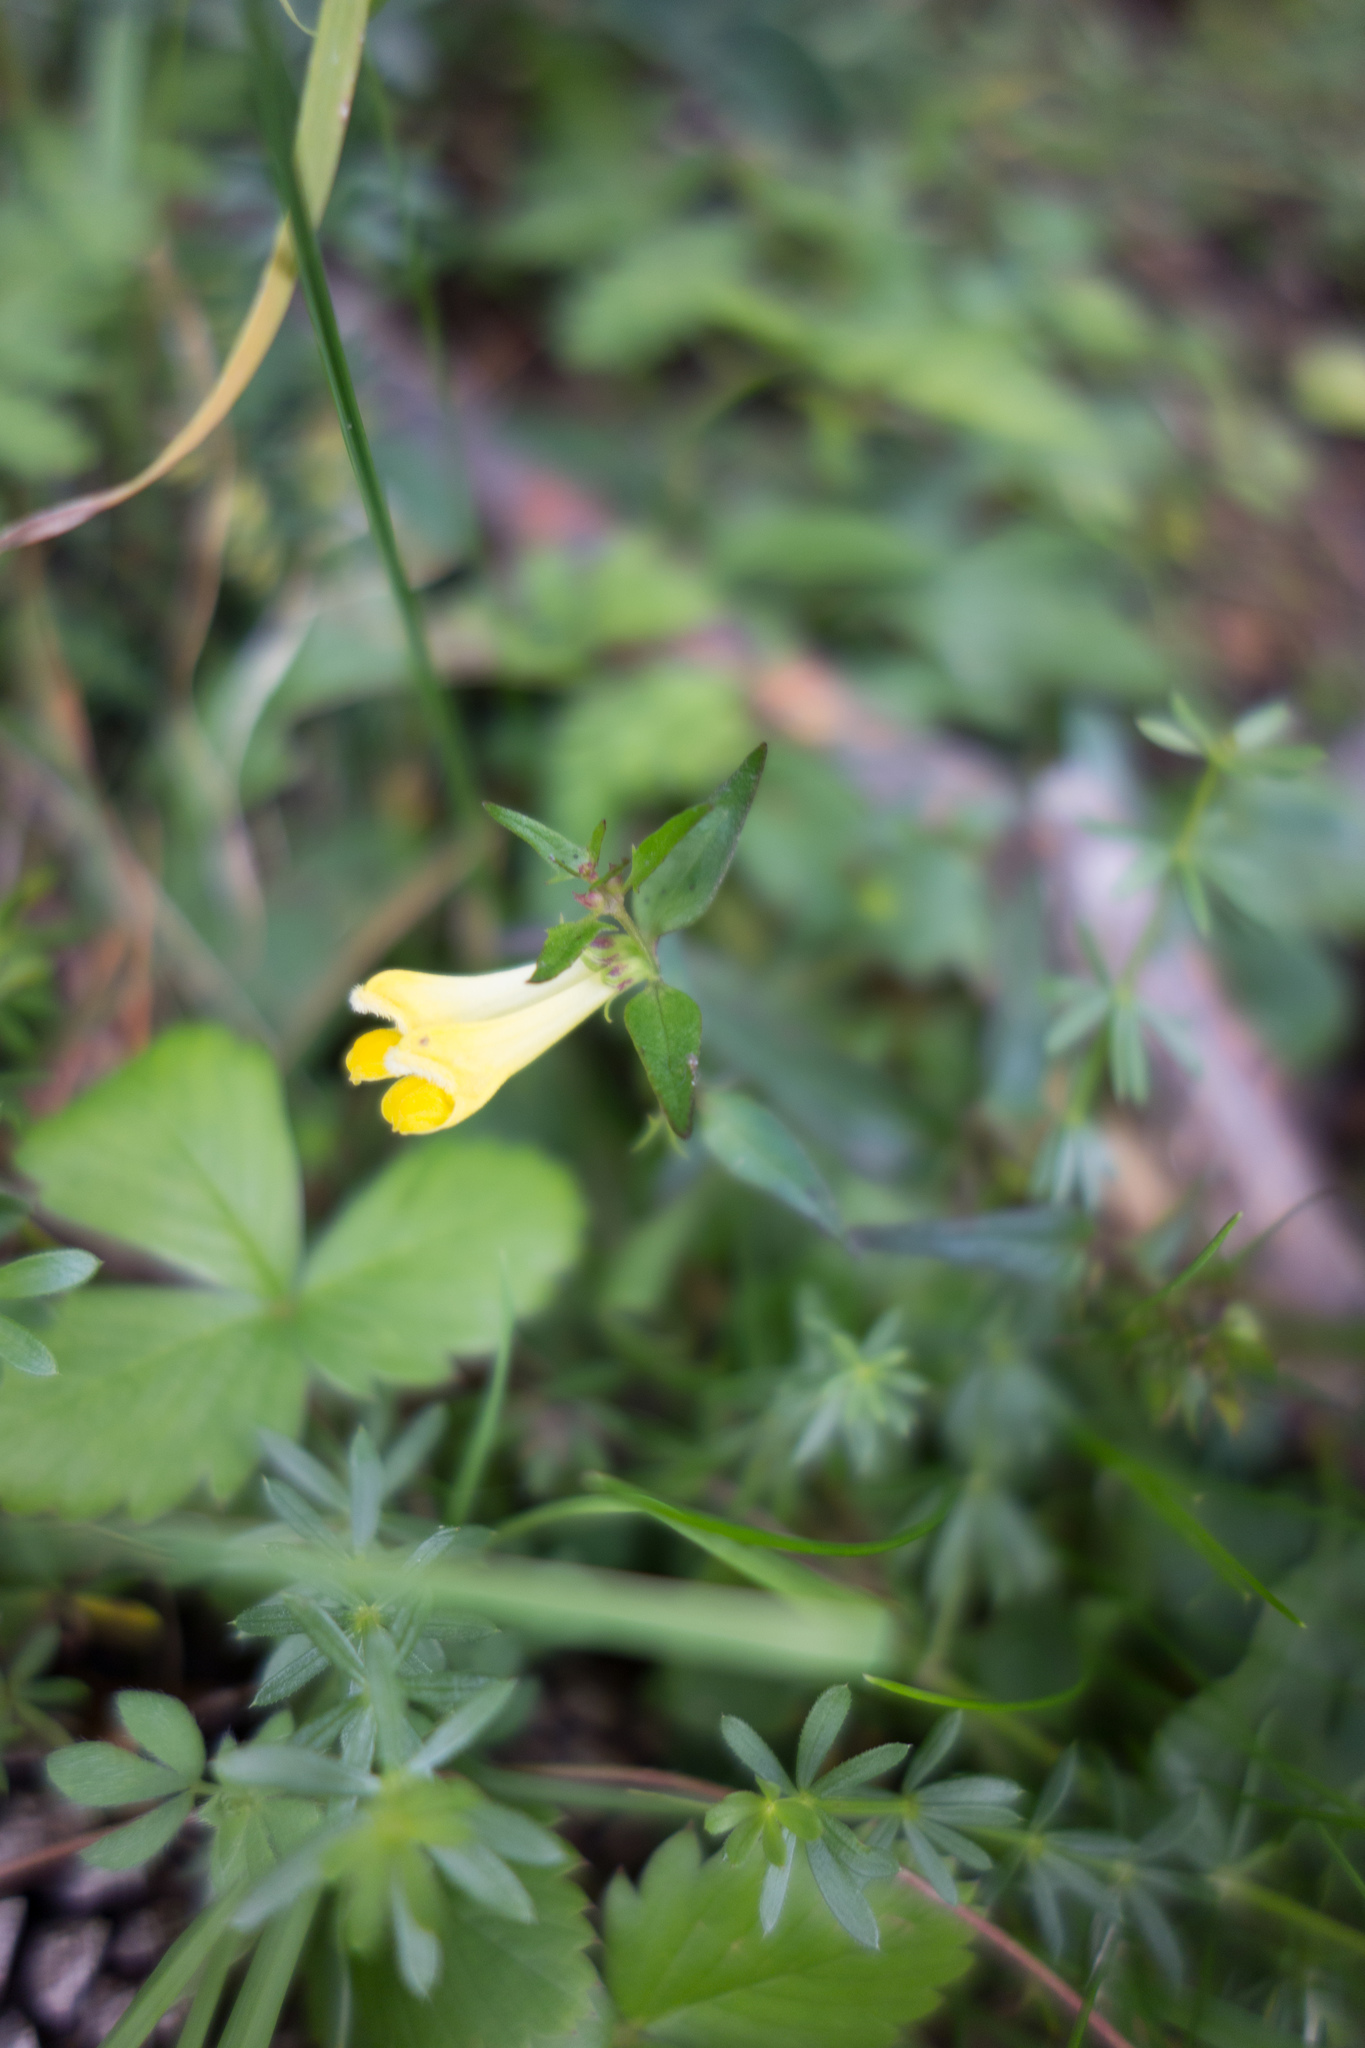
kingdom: Plantae
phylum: Tracheophyta
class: Magnoliopsida
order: Lamiales
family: Orobanchaceae
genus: Melampyrum
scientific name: Melampyrum pratense
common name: Common cow-wheat
